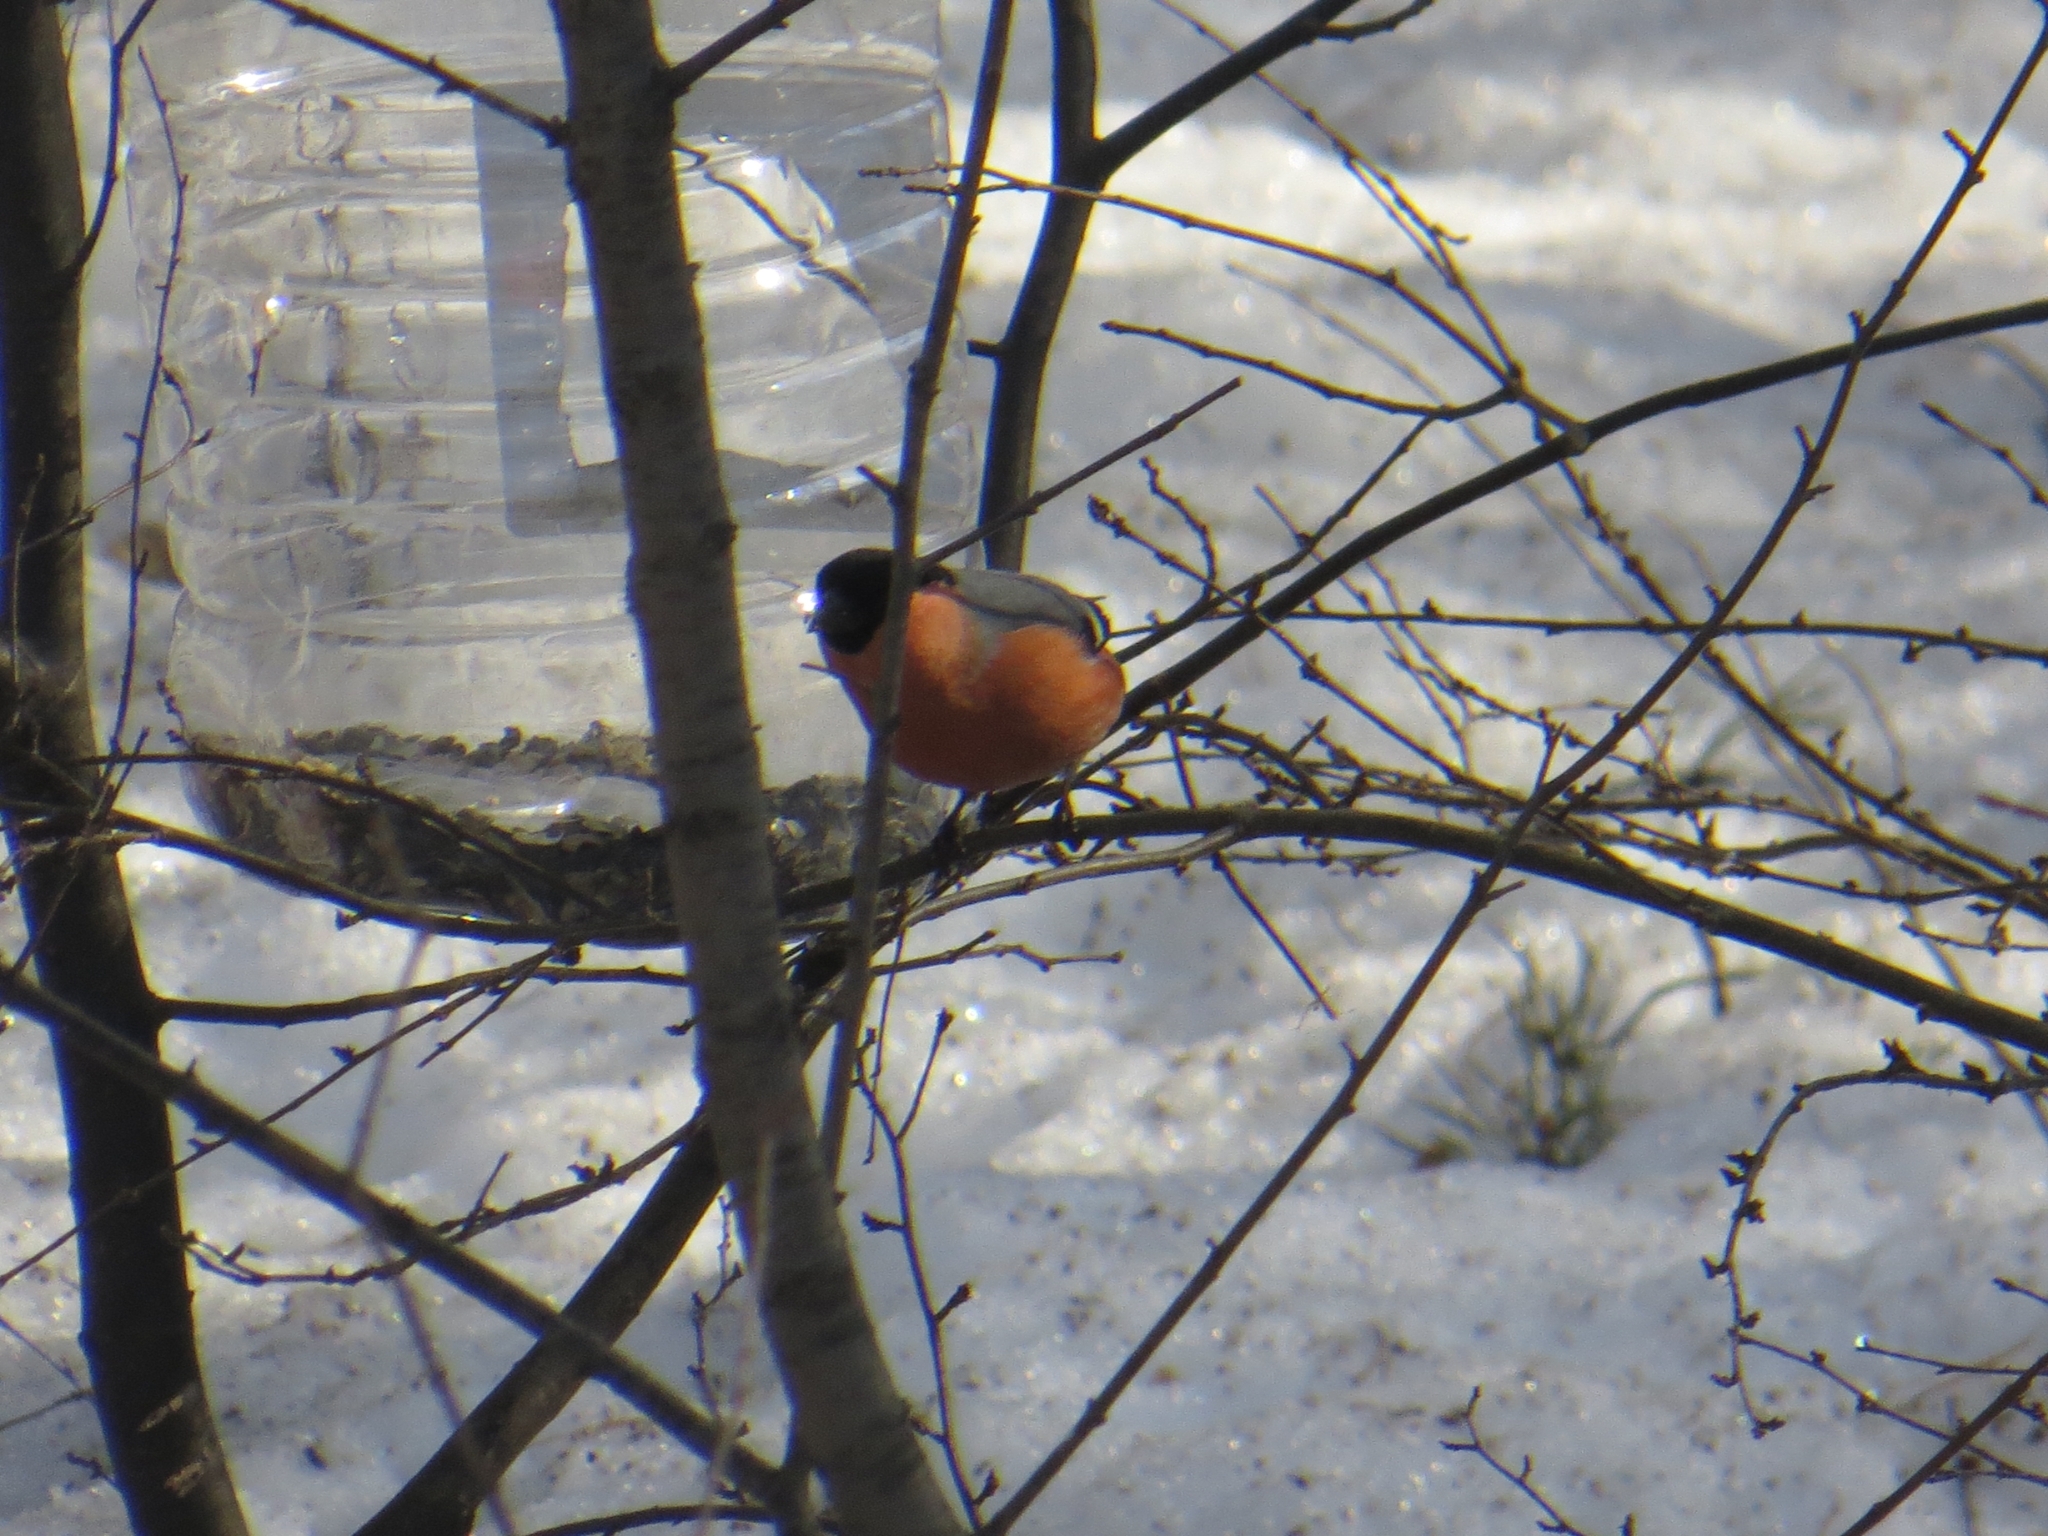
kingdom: Animalia
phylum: Chordata
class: Aves
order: Passeriformes
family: Fringillidae
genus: Pyrrhula
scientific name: Pyrrhula pyrrhula
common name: Eurasian bullfinch
